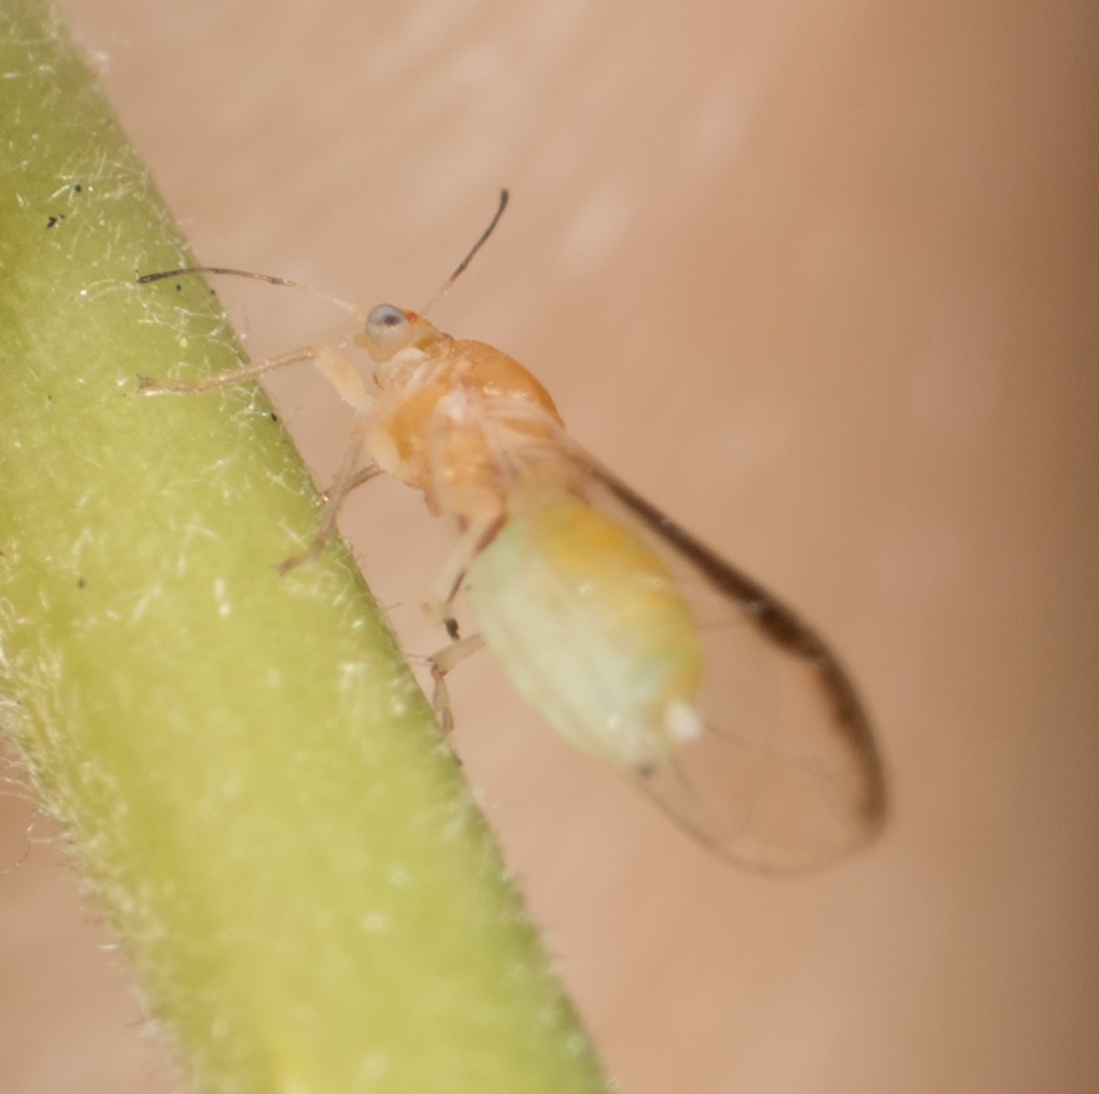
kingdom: Animalia
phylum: Arthropoda
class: Insecta
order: Hemiptera
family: Triozidae
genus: Bactericera
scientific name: Bactericera minuta
